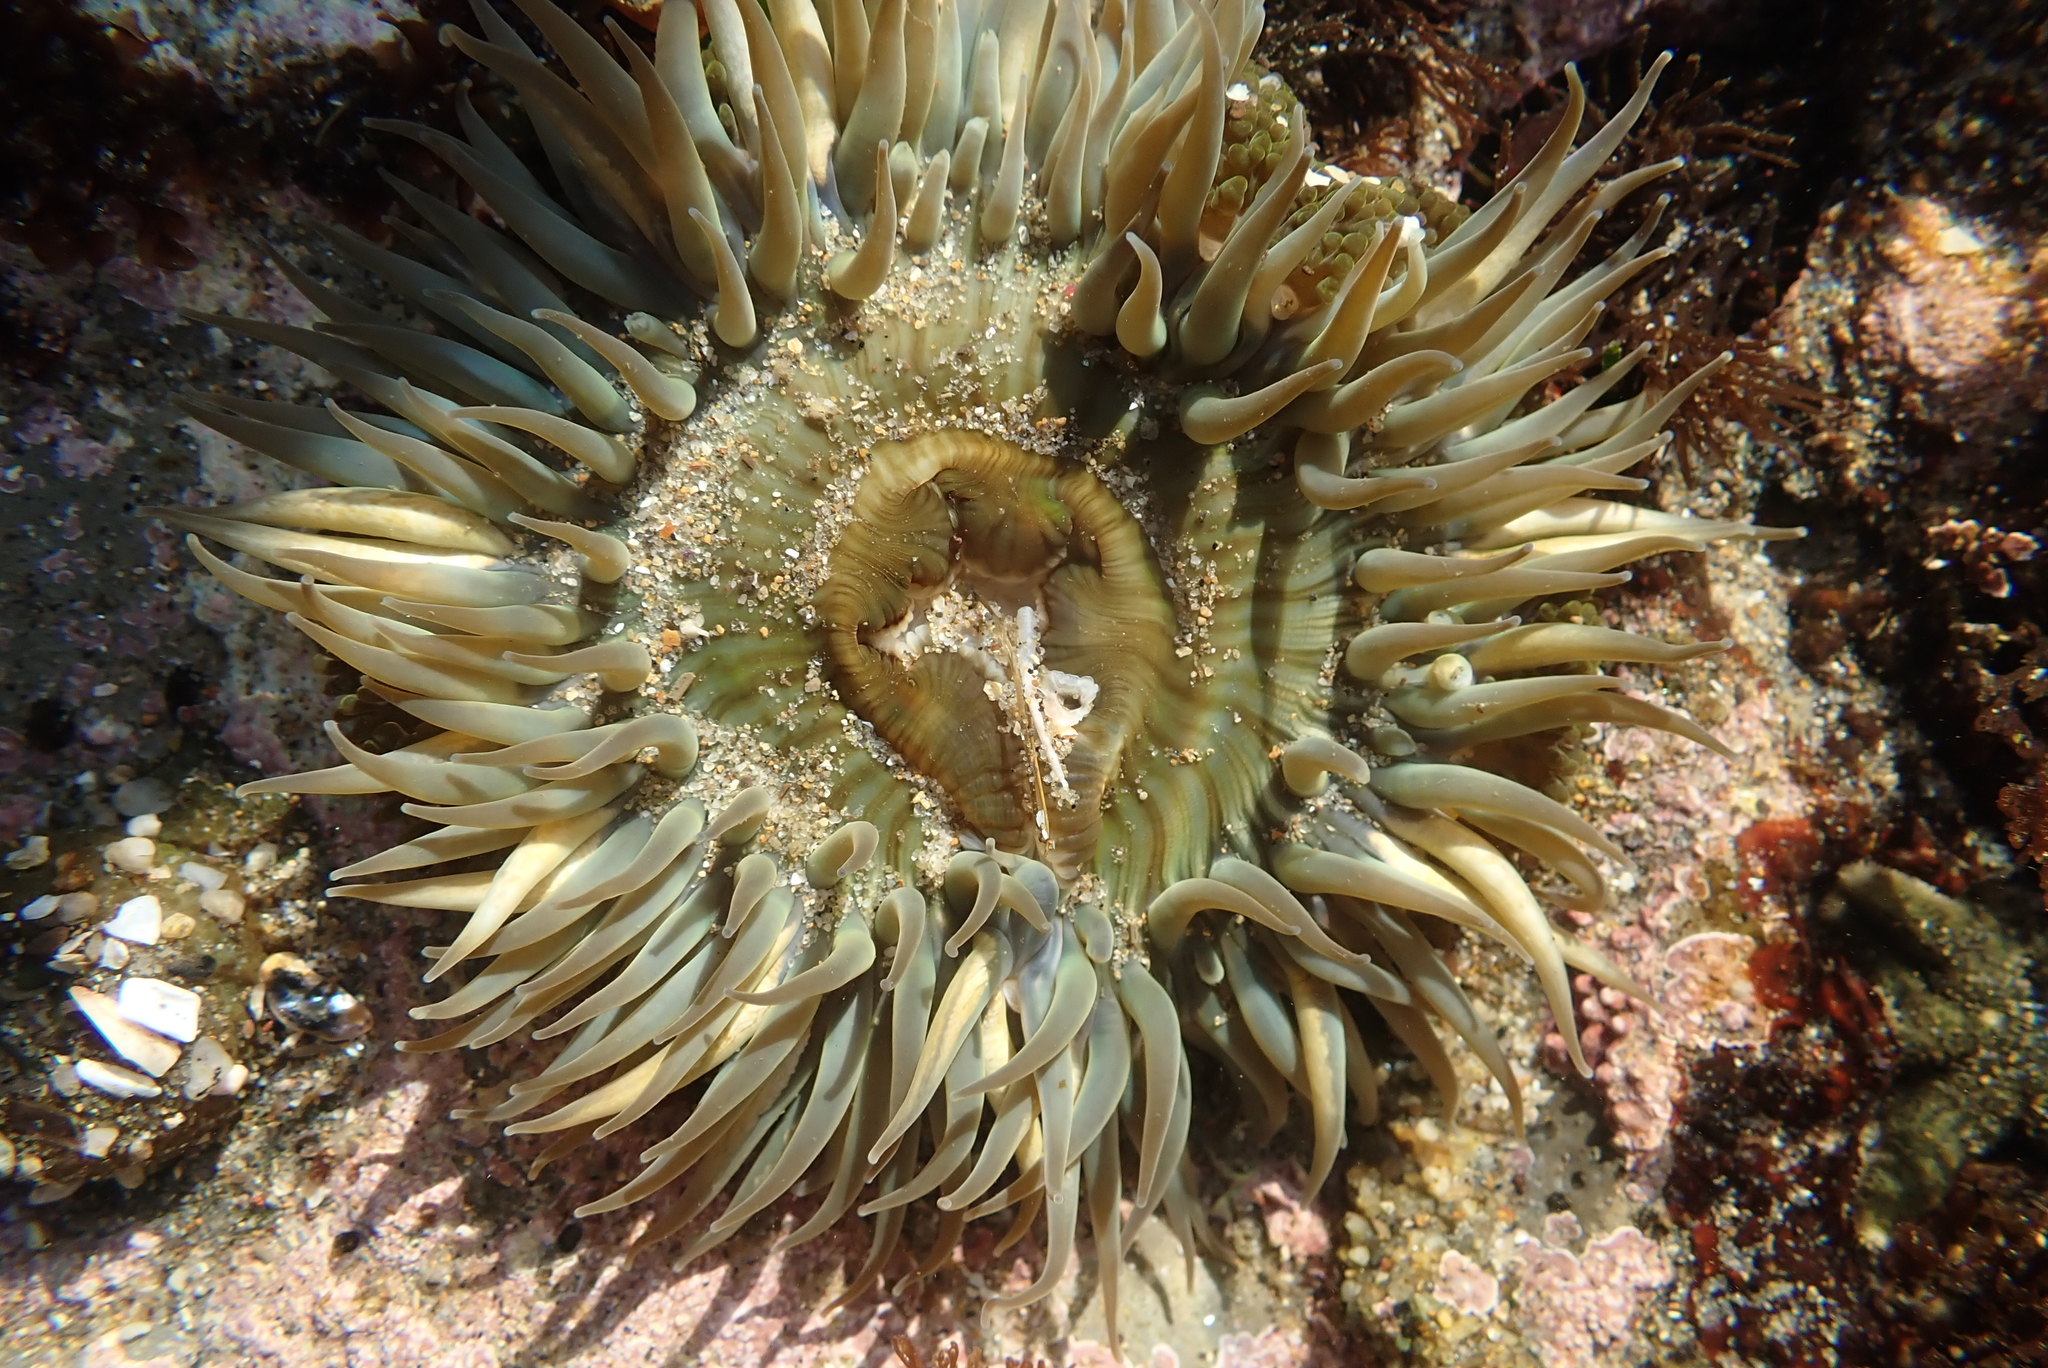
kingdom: Animalia
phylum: Cnidaria
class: Anthozoa
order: Actiniaria
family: Actiniidae
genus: Anthopleura
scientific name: Anthopleura sola
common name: Sun anemone
